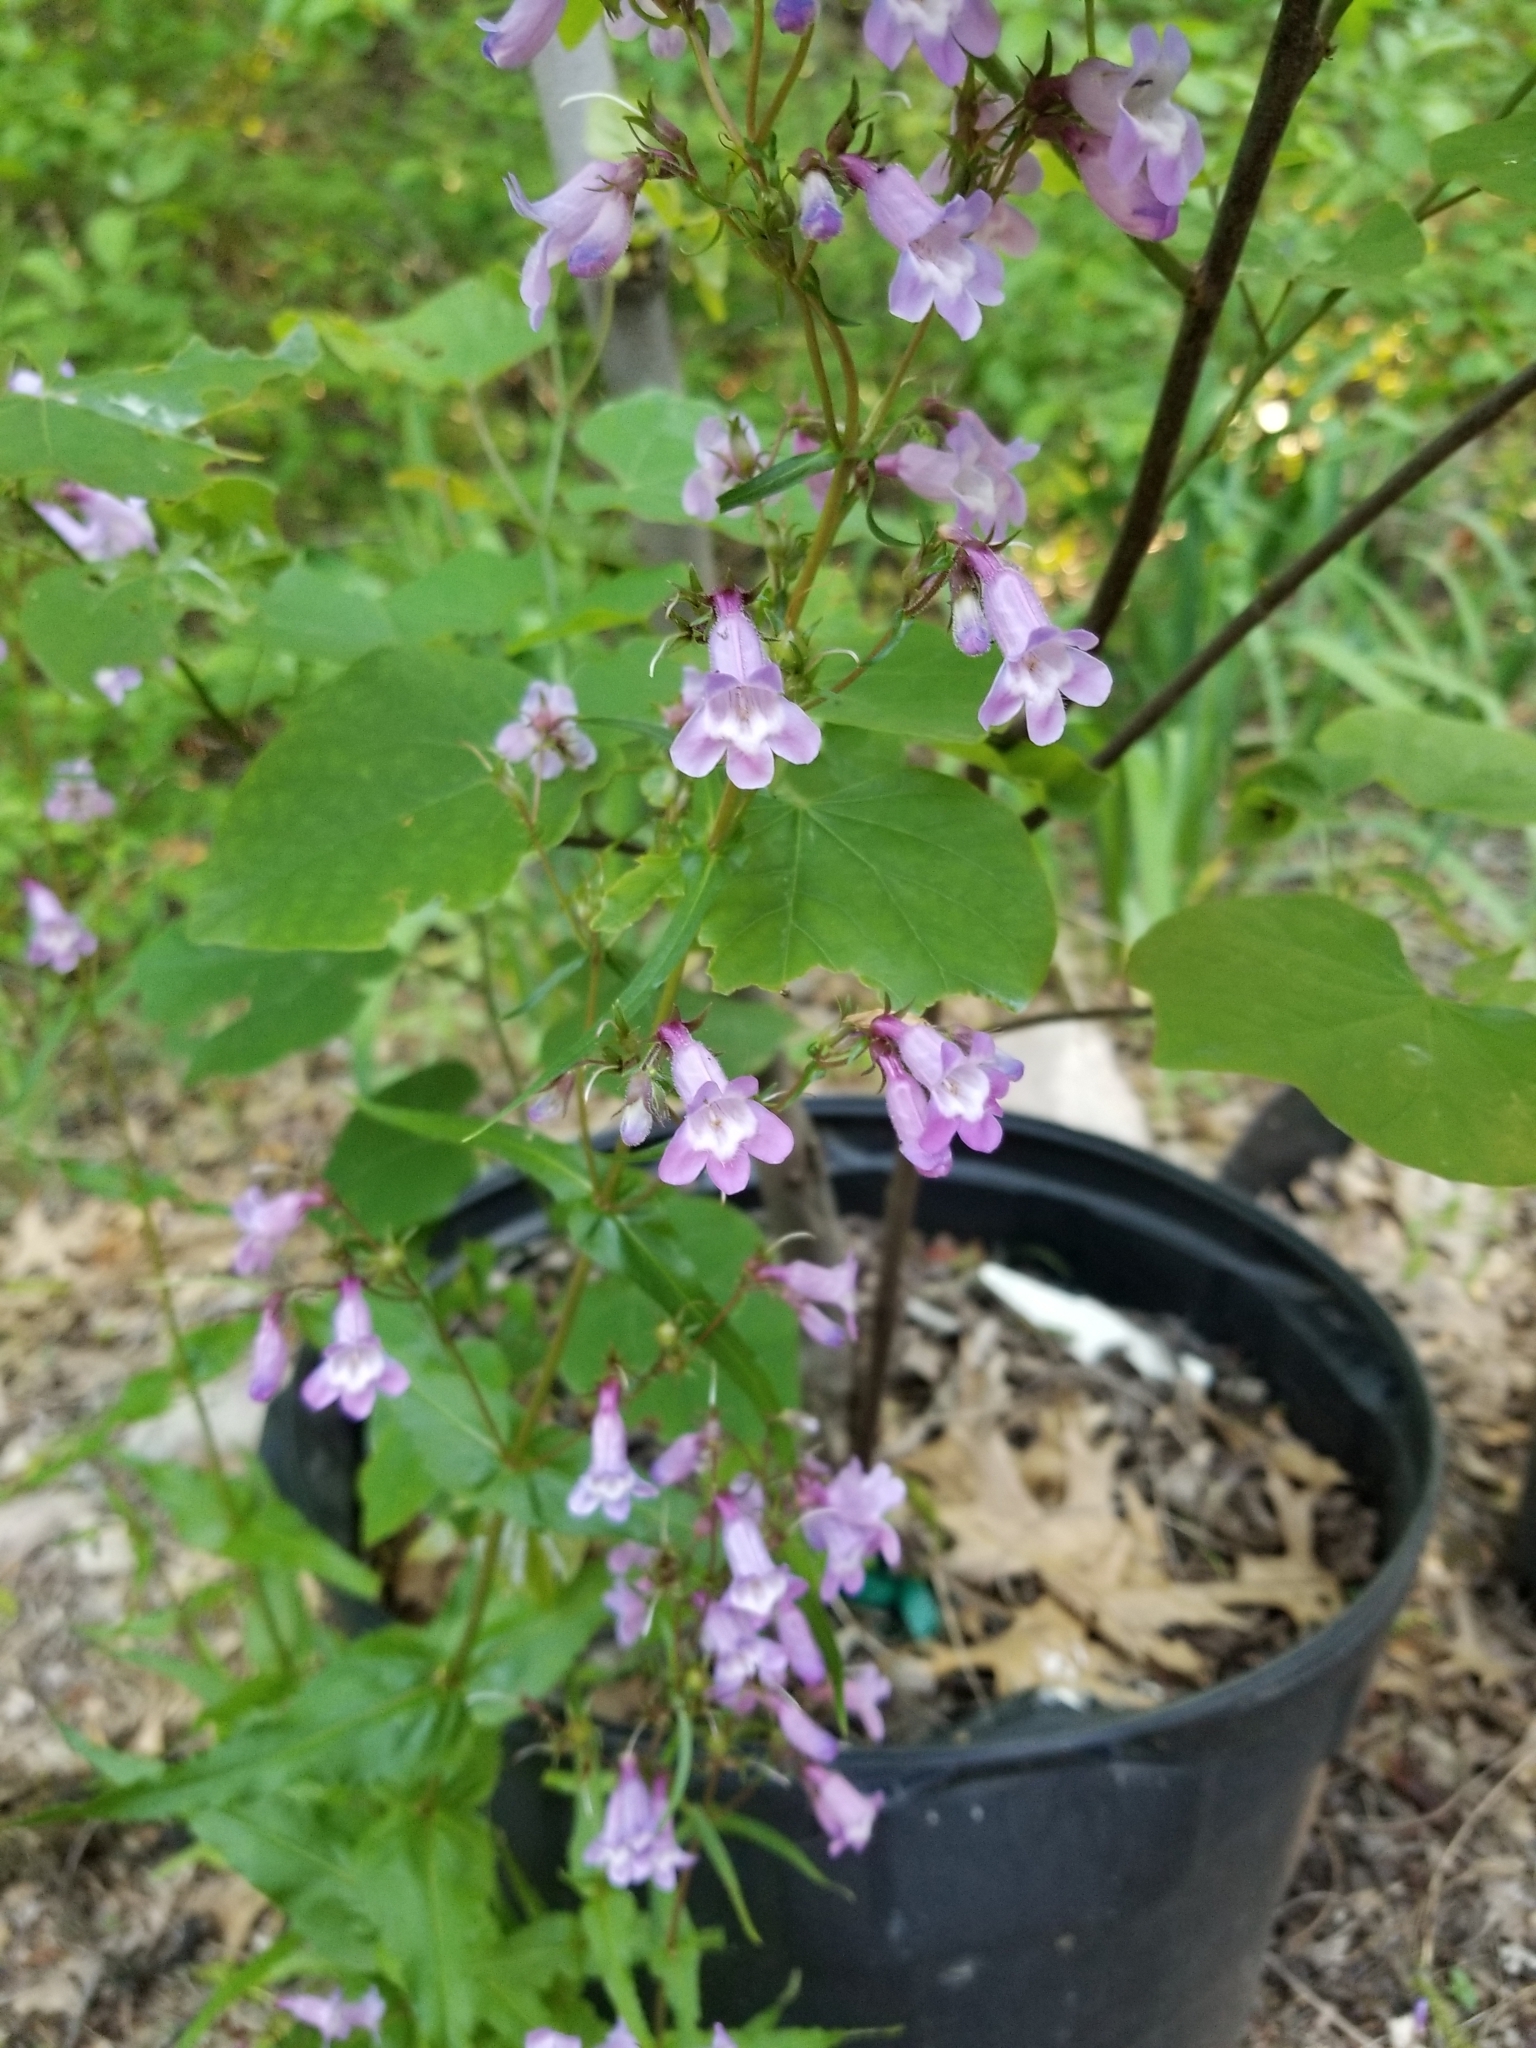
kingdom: Plantae
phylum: Tracheophyta
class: Magnoliopsida
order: Lamiales
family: Plantaginaceae
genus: Penstemon
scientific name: Penstemon tenuis
